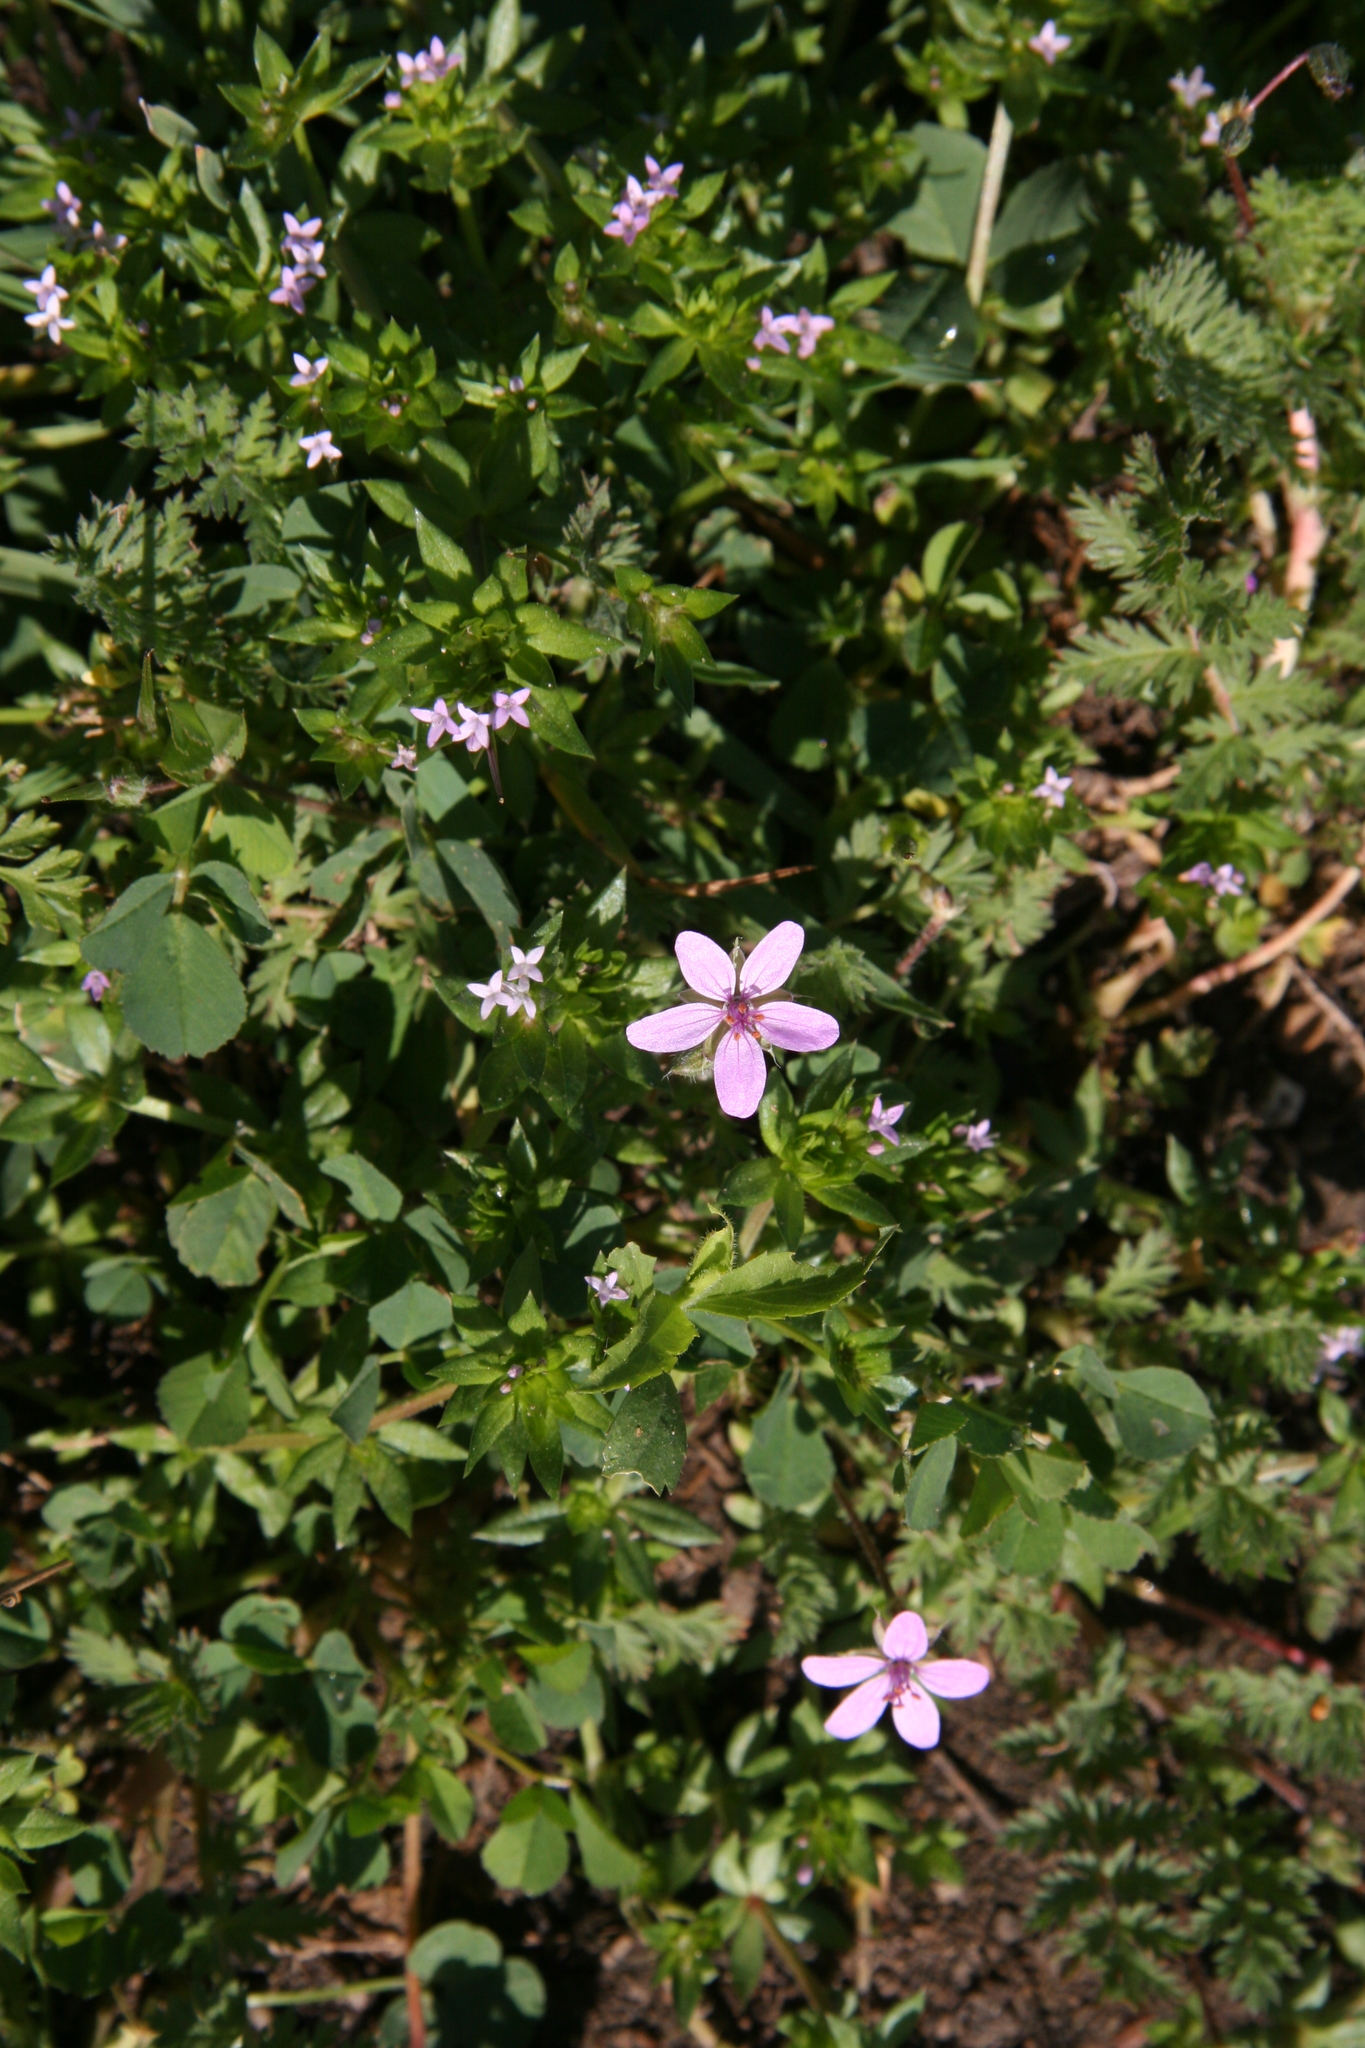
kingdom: Plantae
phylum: Tracheophyta
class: Magnoliopsida
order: Geraniales
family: Geraniaceae
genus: Erodium
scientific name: Erodium cicutarium
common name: Common stork's-bill
